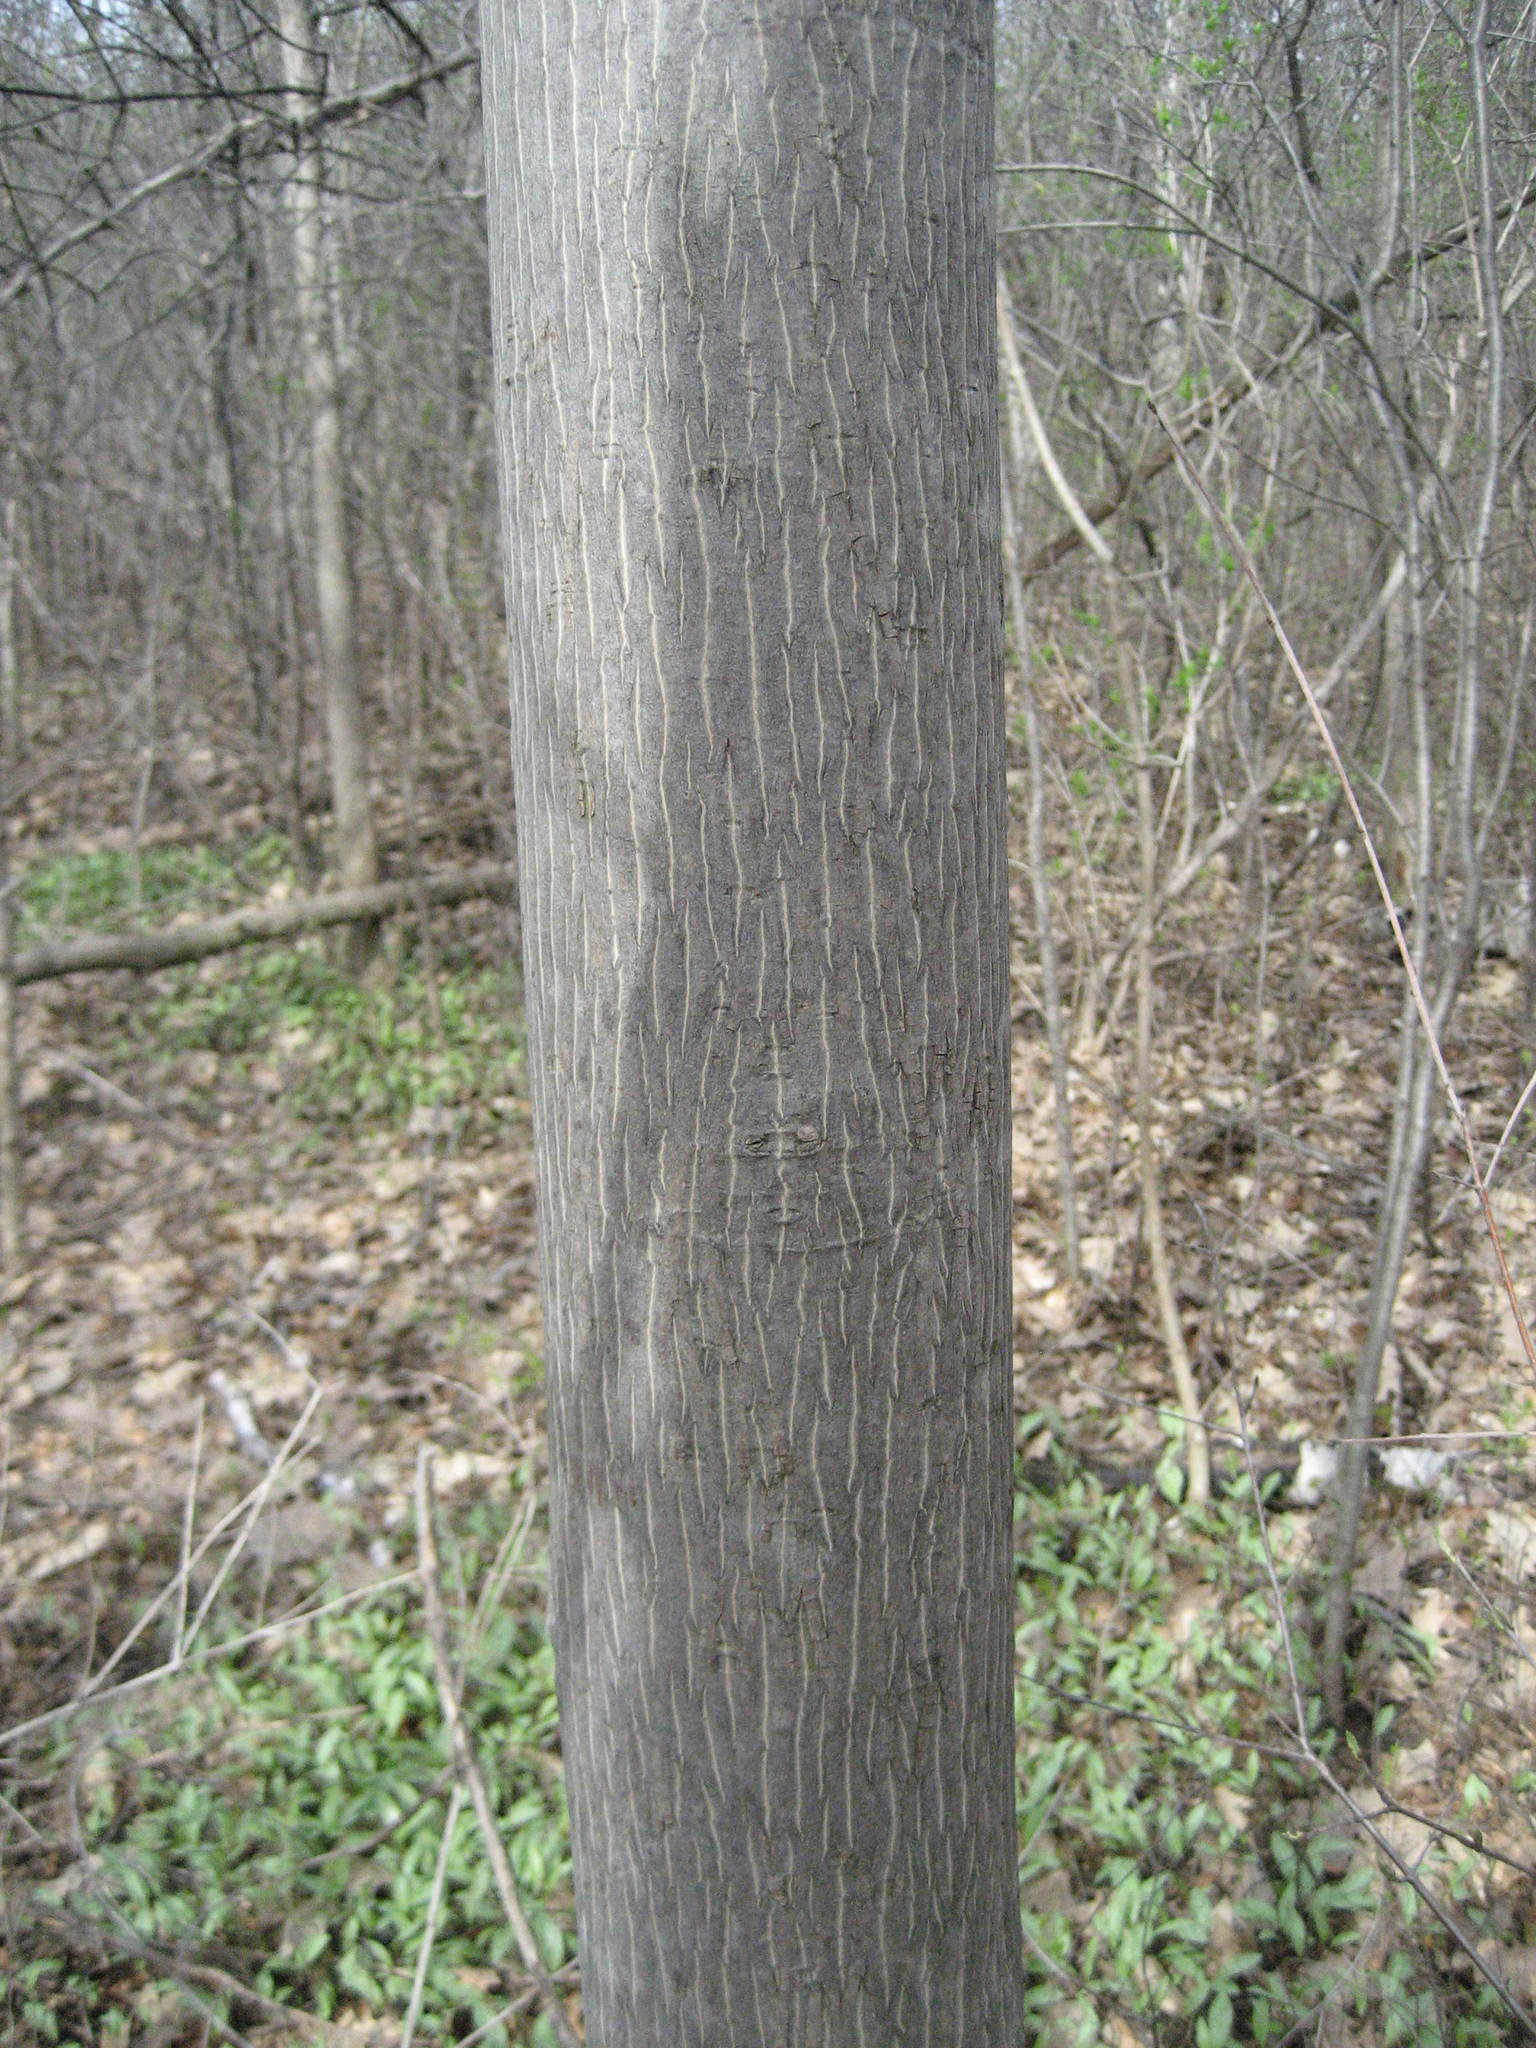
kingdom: Plantae
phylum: Tracheophyta
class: Magnoliopsida
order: Fagales
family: Juglandaceae
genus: Carya
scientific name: Carya cordiformis
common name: Bitternut hickory
